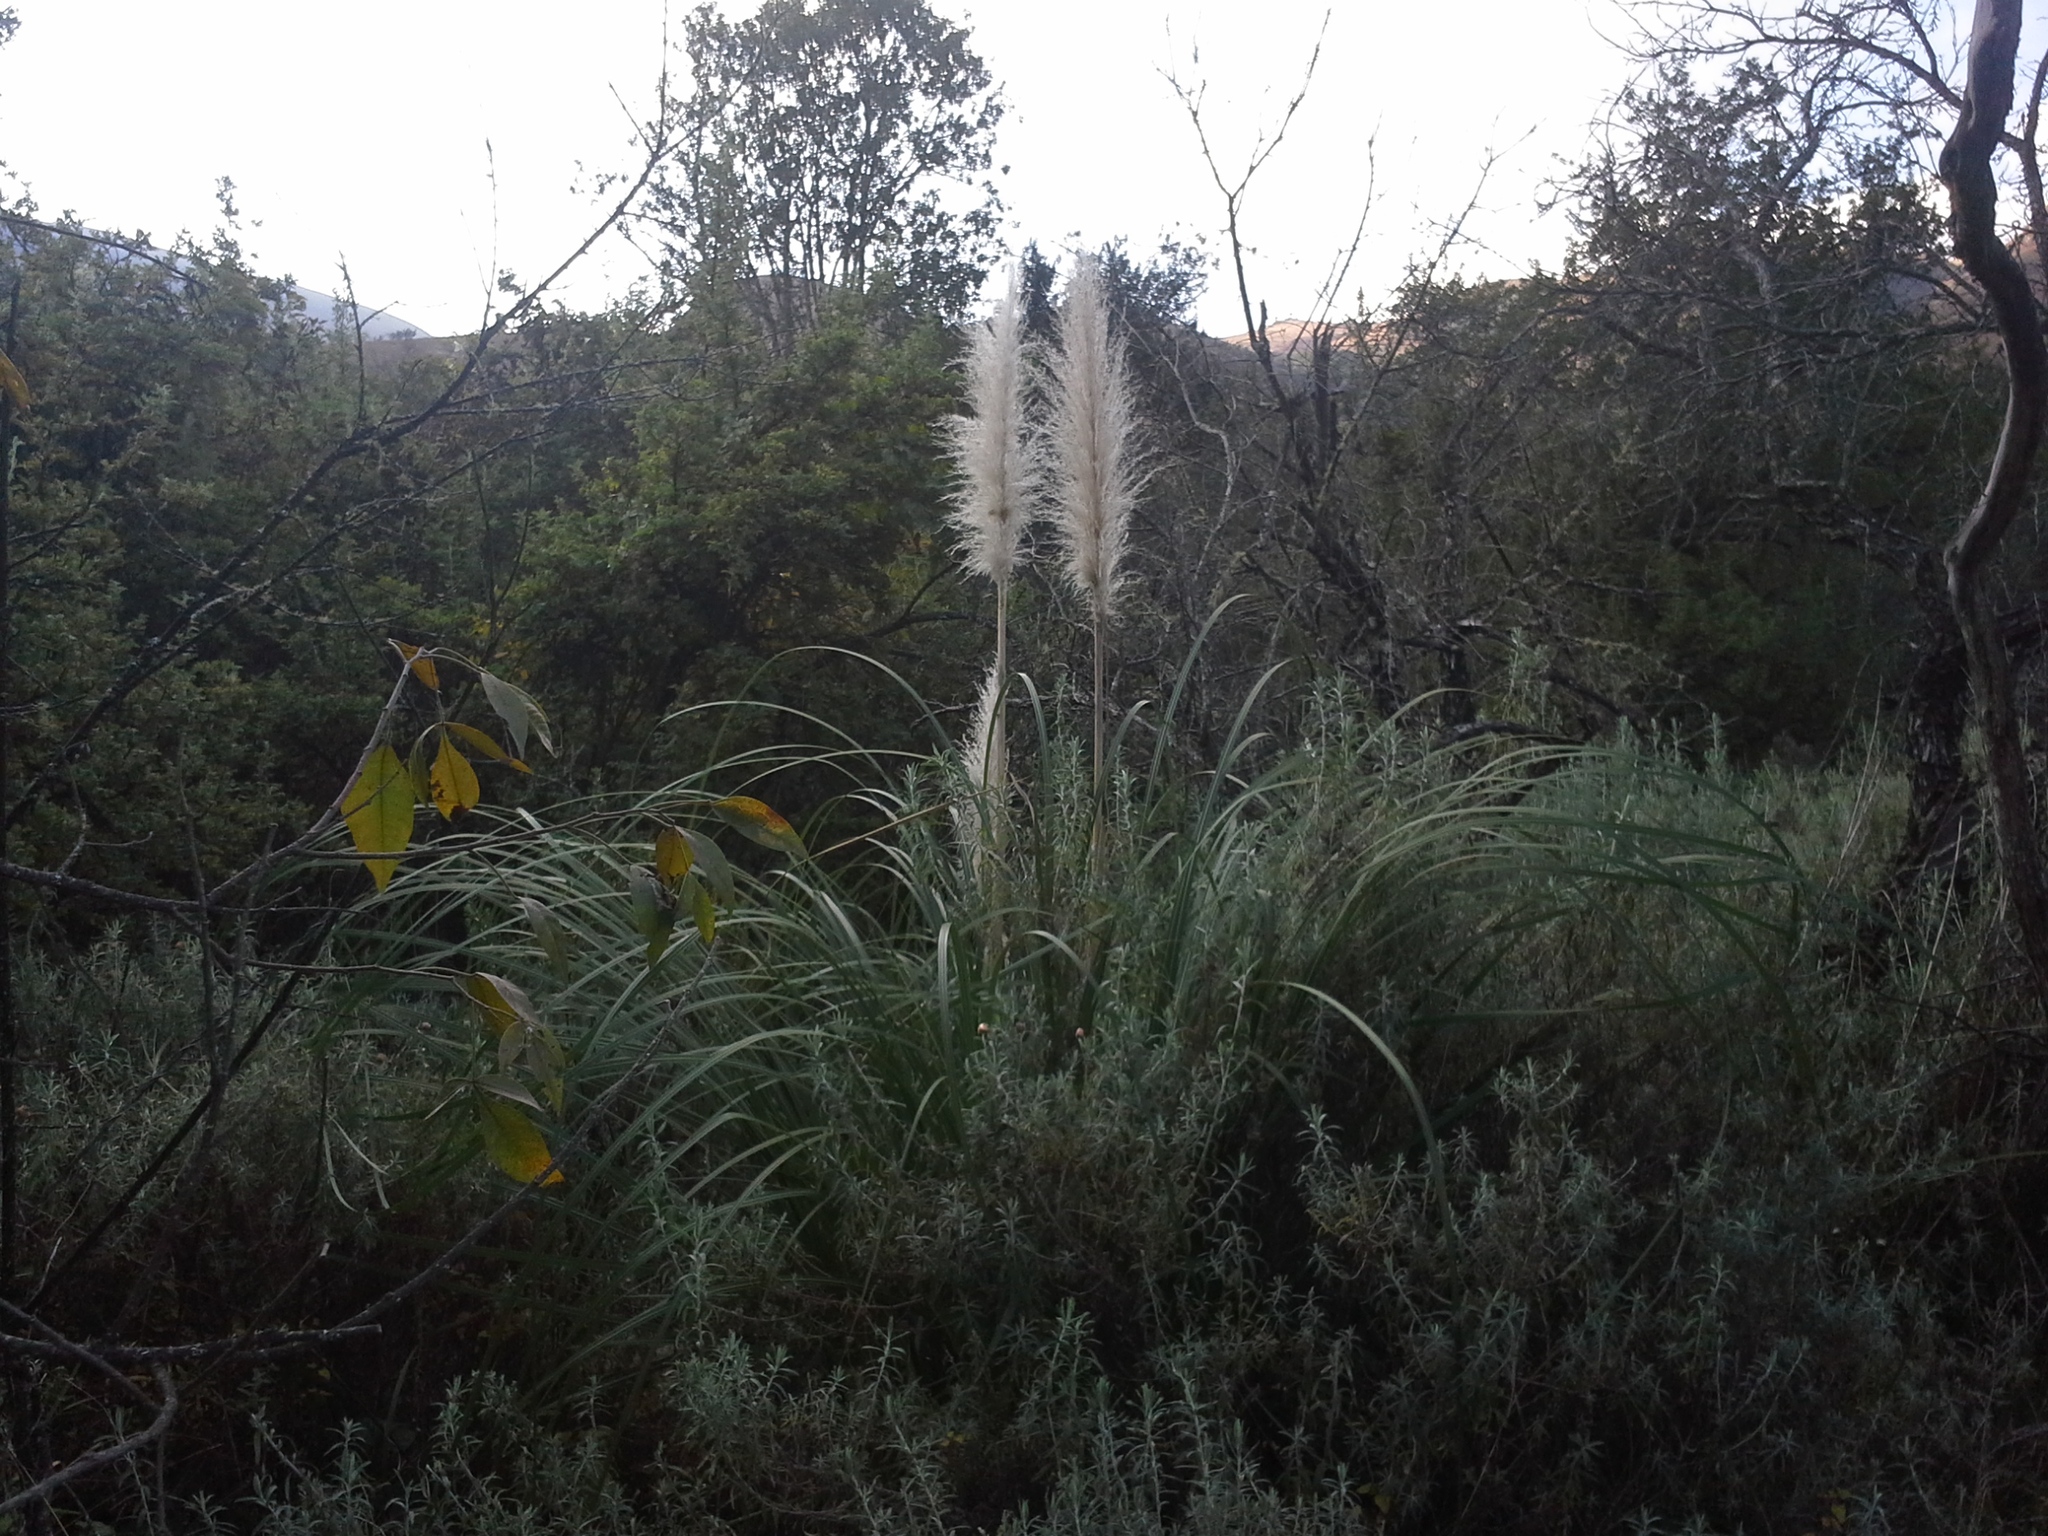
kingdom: Plantae
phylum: Tracheophyta
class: Liliopsida
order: Poales
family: Poaceae
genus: Cortaderia
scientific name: Cortaderia selloana
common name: Uruguayan pampas grass
